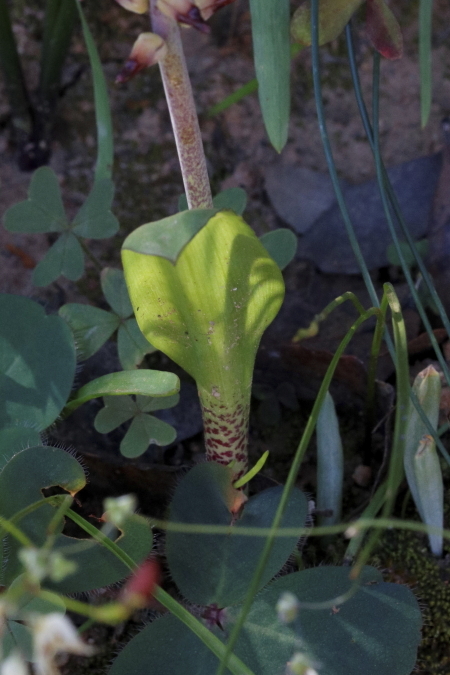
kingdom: Plantae
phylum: Tracheophyta
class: Liliopsida
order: Asparagales
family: Asparagaceae
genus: Lachenalia
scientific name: Lachenalia mutabilis
